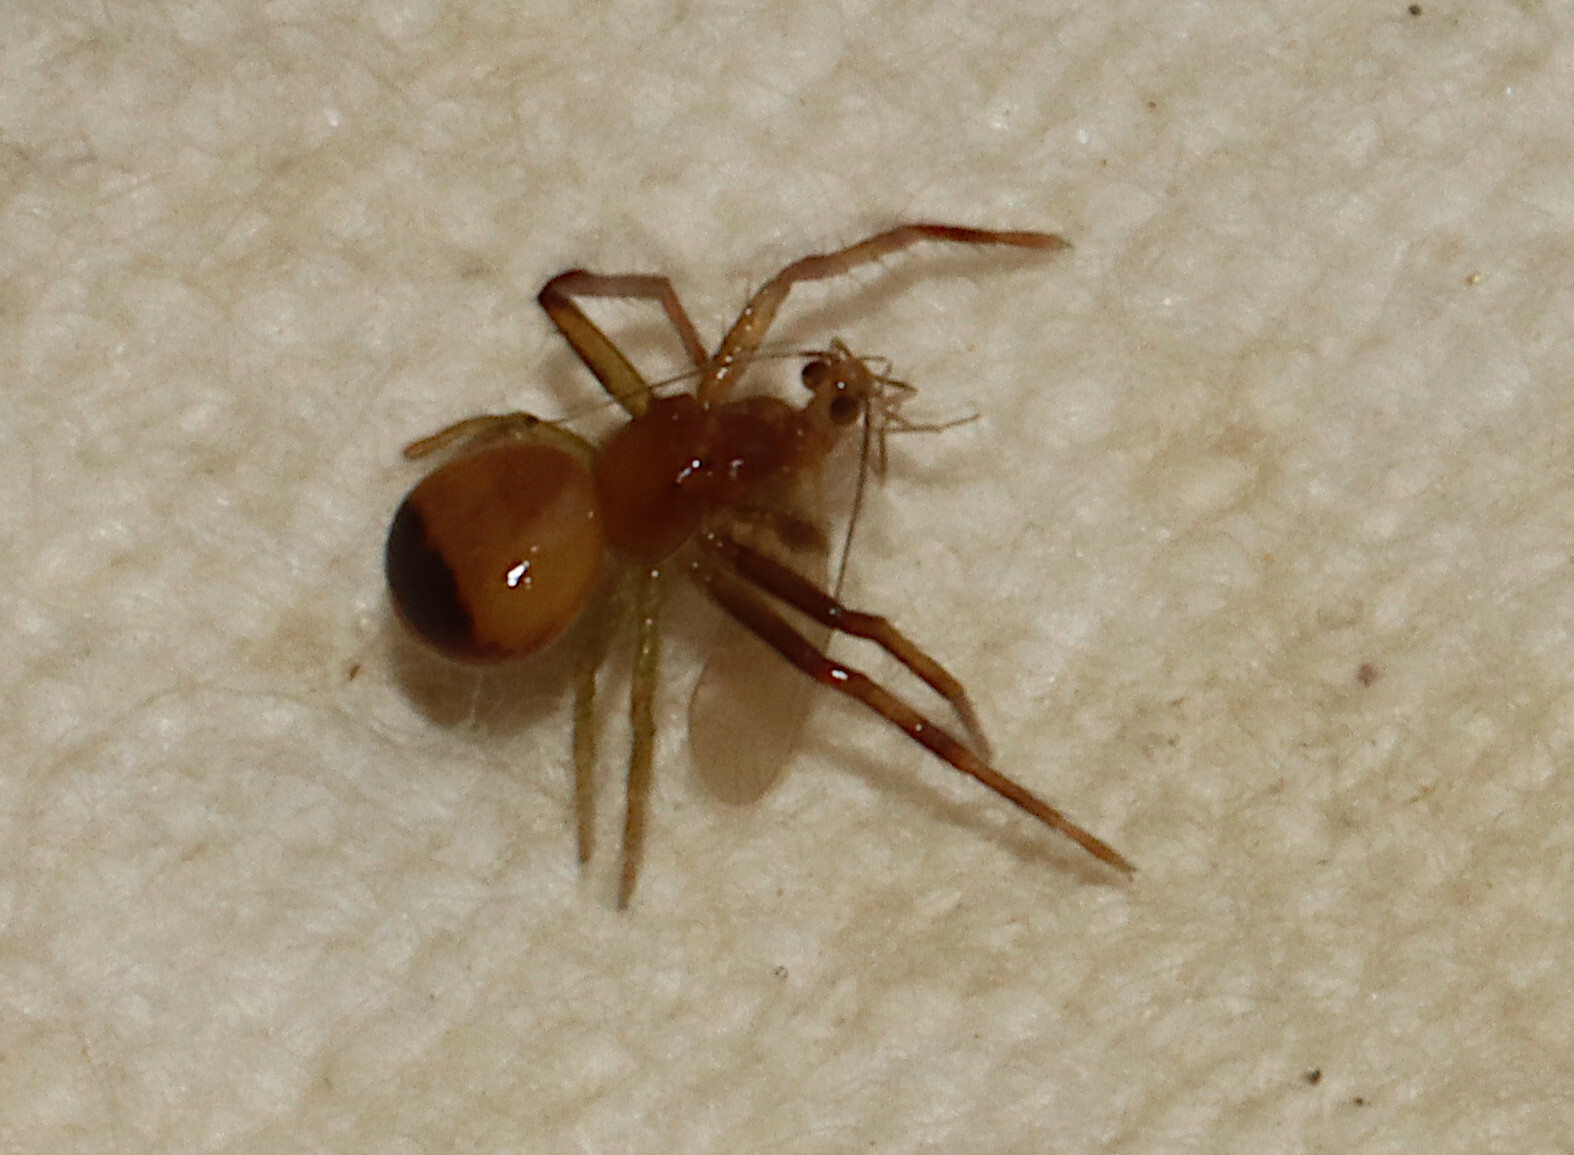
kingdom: Animalia
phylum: Arthropoda
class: Arachnida
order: Araneae
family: Thomisidae
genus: Synema
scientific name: Synema parvulum
